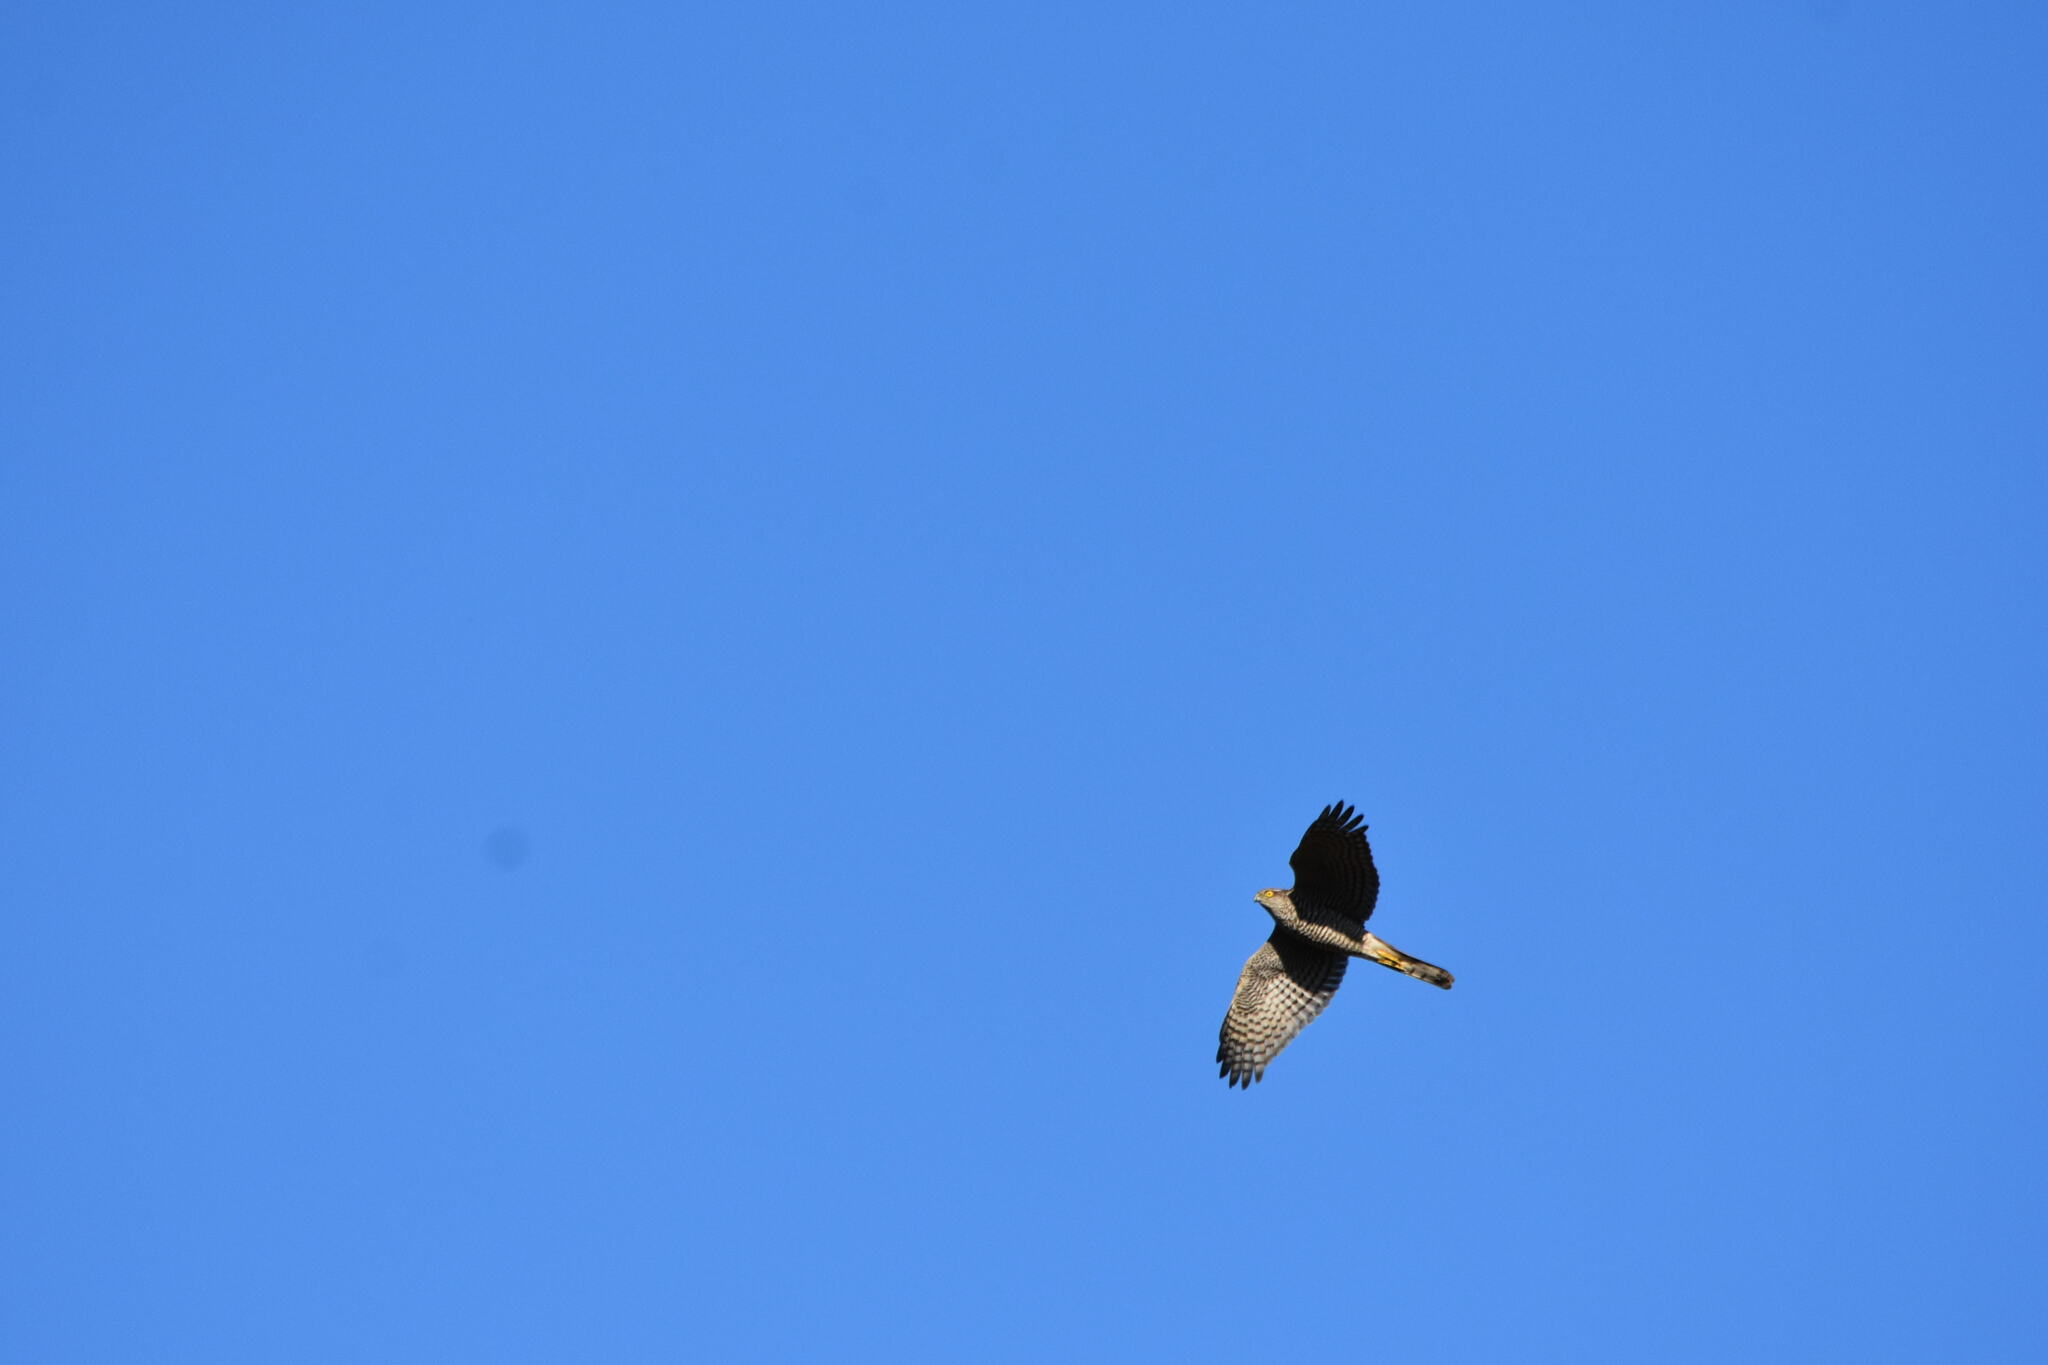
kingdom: Animalia
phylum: Chordata
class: Aves
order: Accipitriformes
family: Accipitridae
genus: Accipiter
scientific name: Accipiter nisus
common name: Eurasian sparrowhawk
